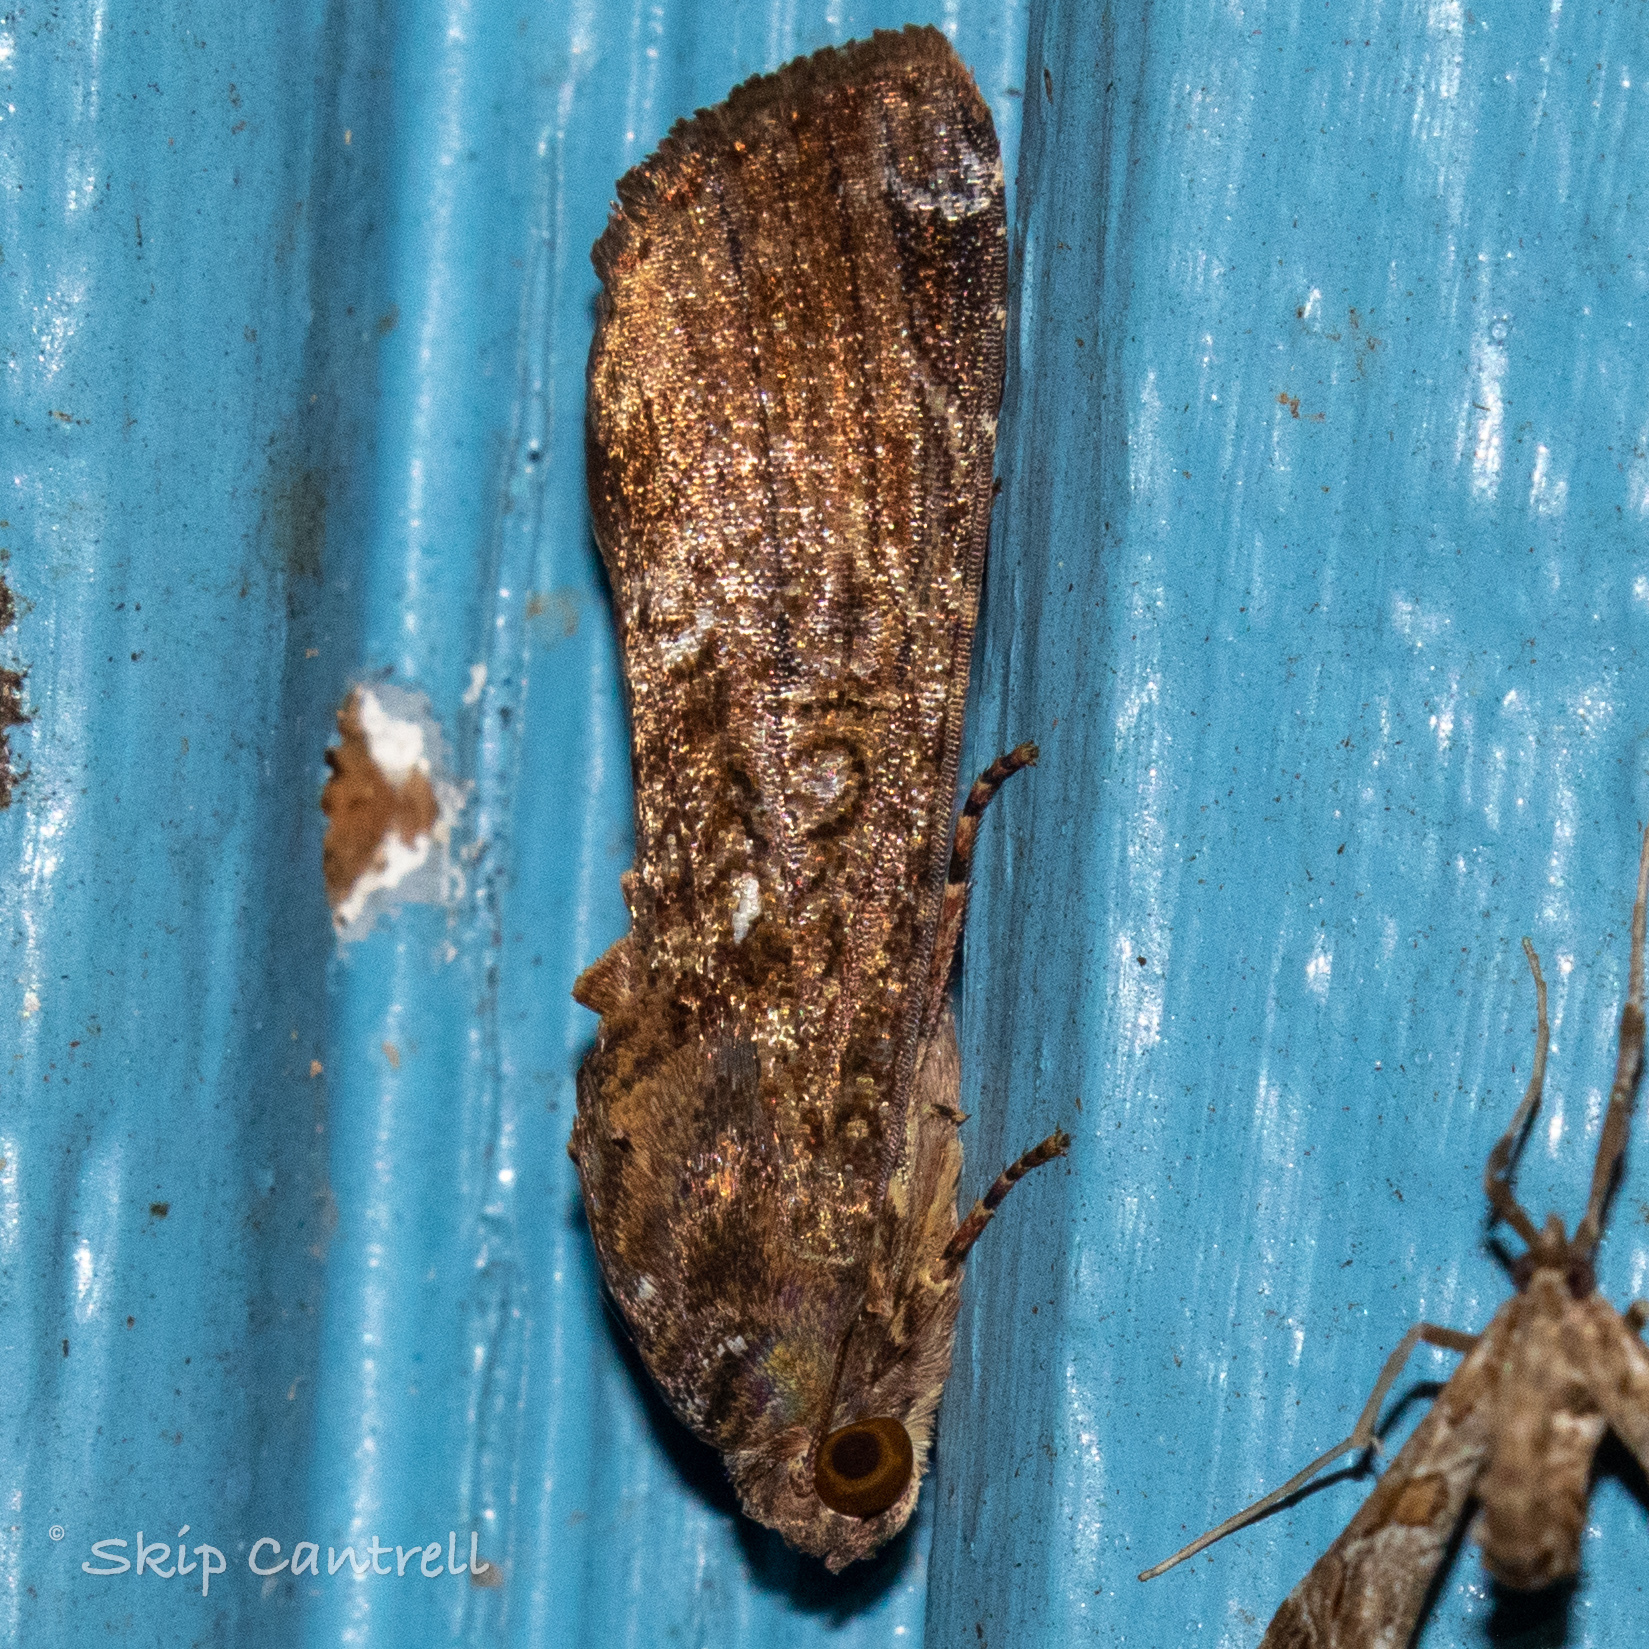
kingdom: Animalia
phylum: Arthropoda
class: Insecta
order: Lepidoptera
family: Noctuidae
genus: Magusa
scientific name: Magusa divaricata
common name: Orb narrow-winged moth
